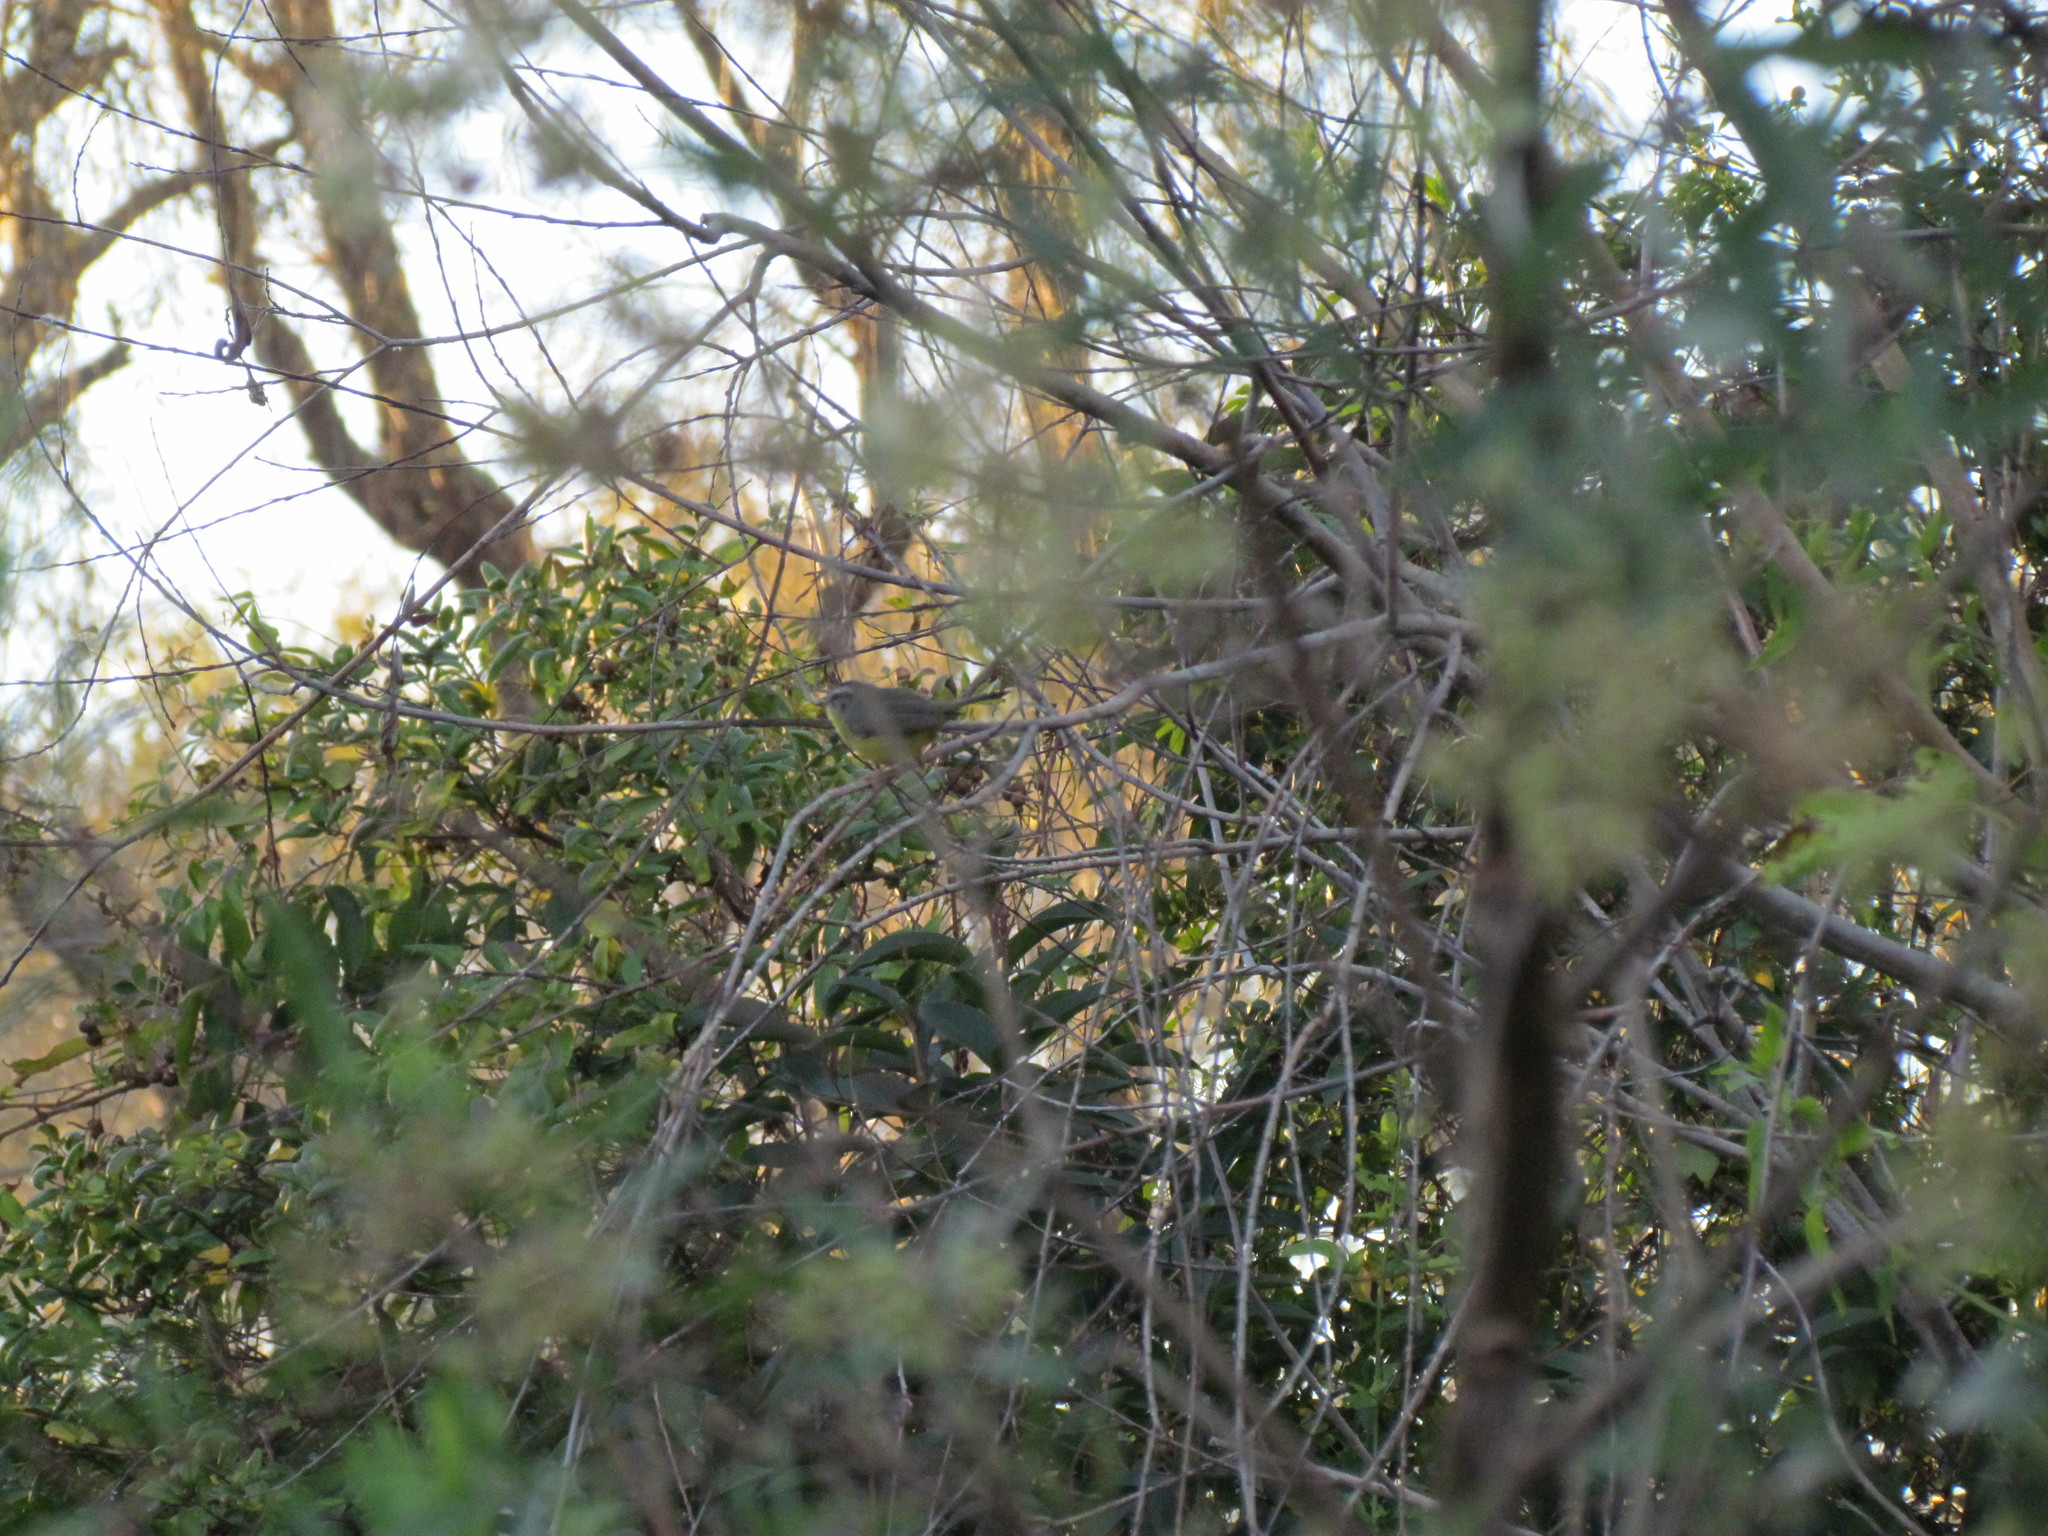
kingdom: Animalia
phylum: Chordata
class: Aves
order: Passeriformes
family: Parulidae
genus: Basileuterus
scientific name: Basileuterus culicivorus
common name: Golden-crowned warbler
